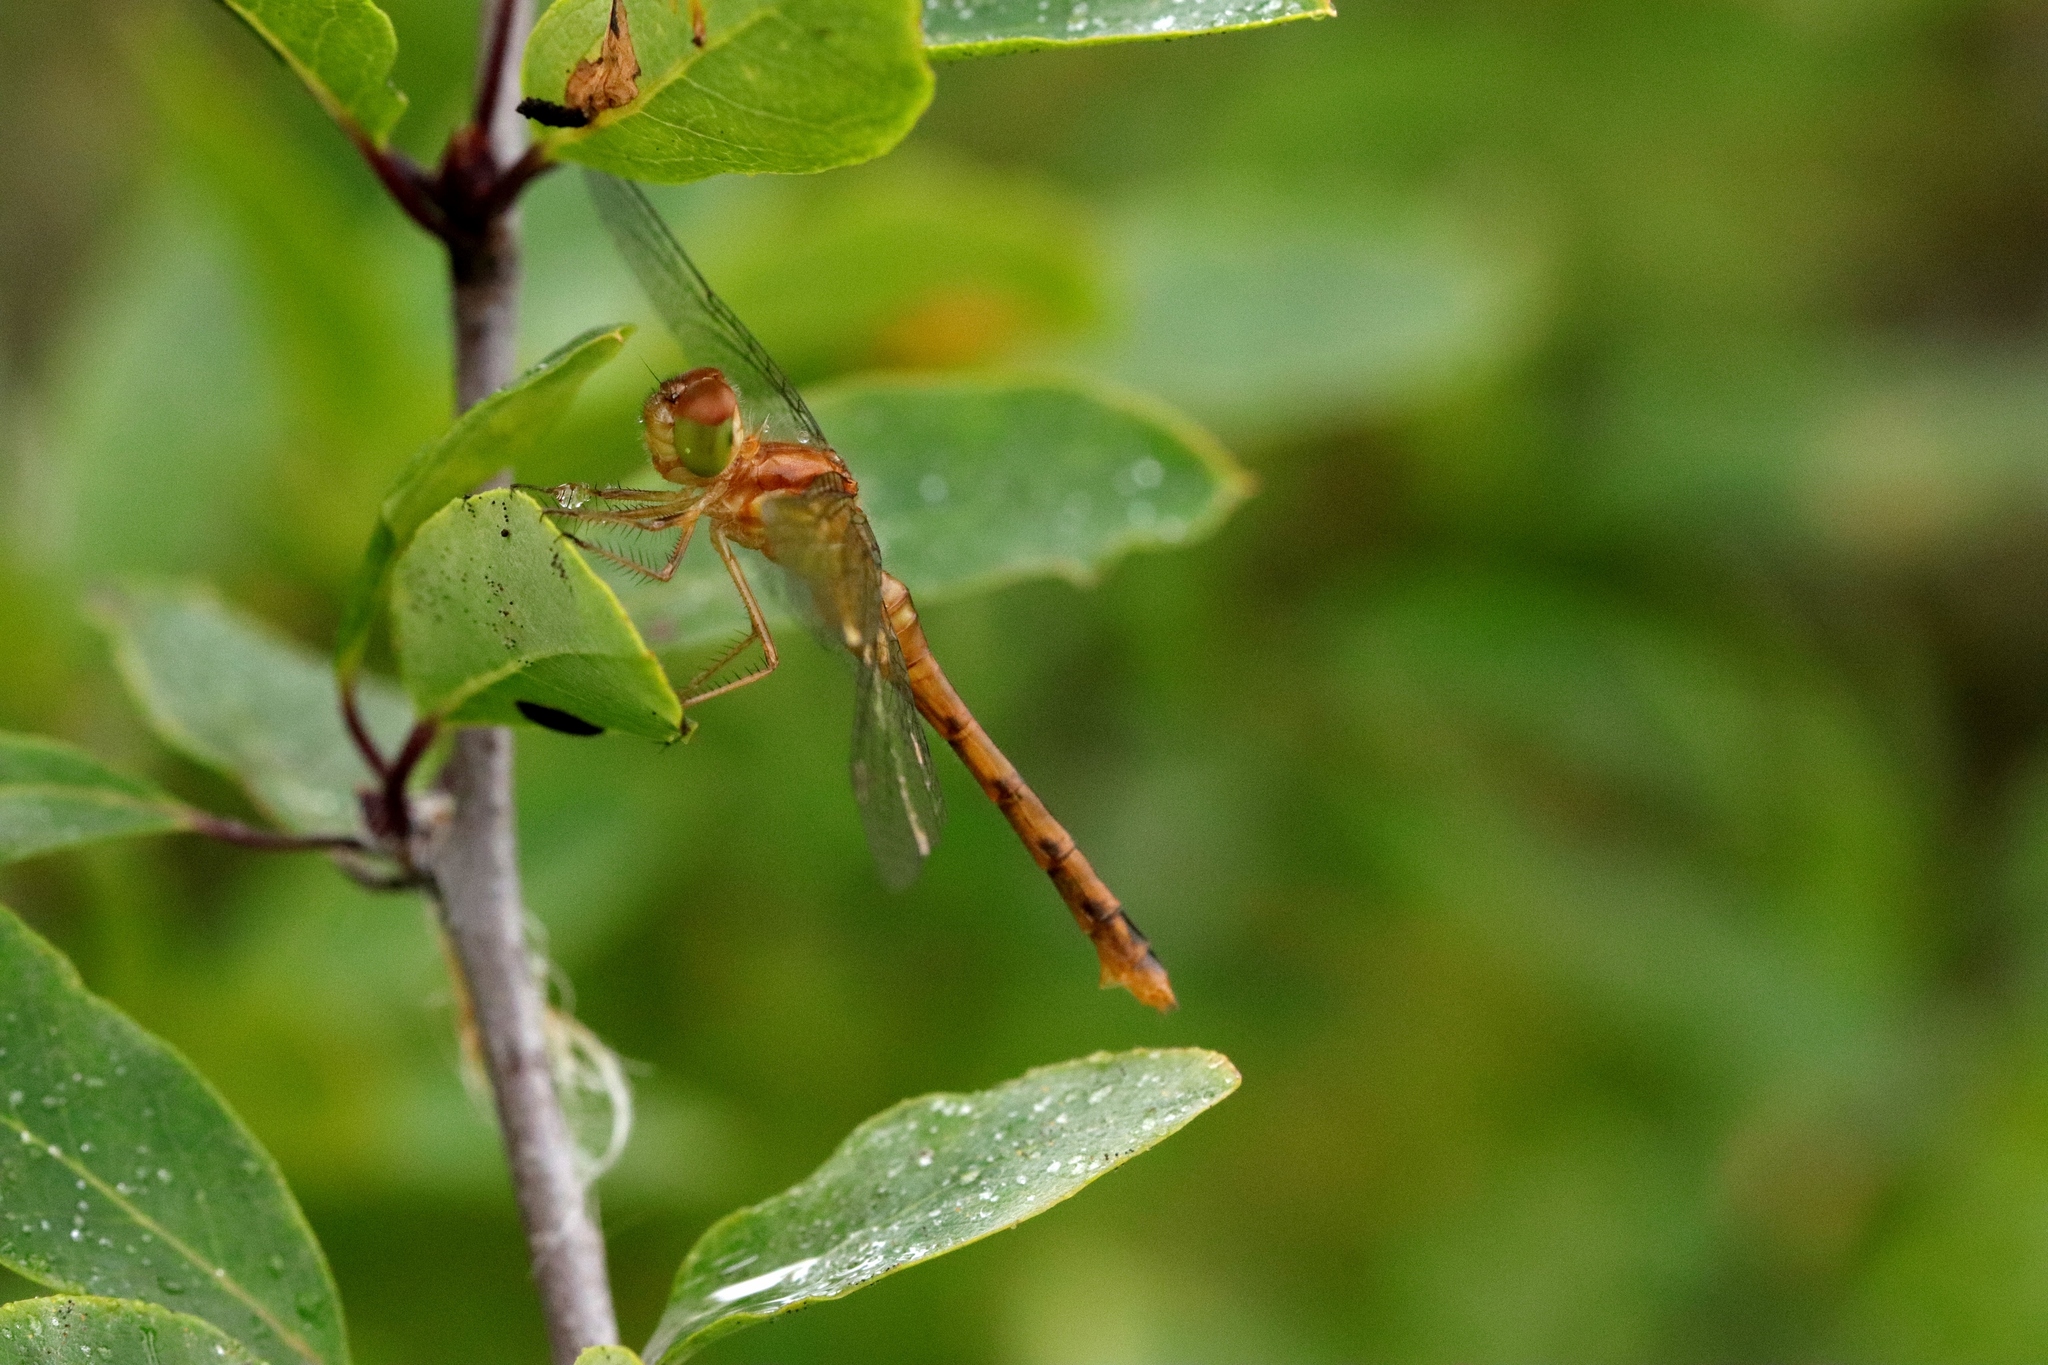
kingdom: Animalia
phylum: Arthropoda
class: Insecta
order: Odonata
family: Libellulidae
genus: Sympetrum
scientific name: Sympetrum vicinum
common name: Autumn meadowhawk
